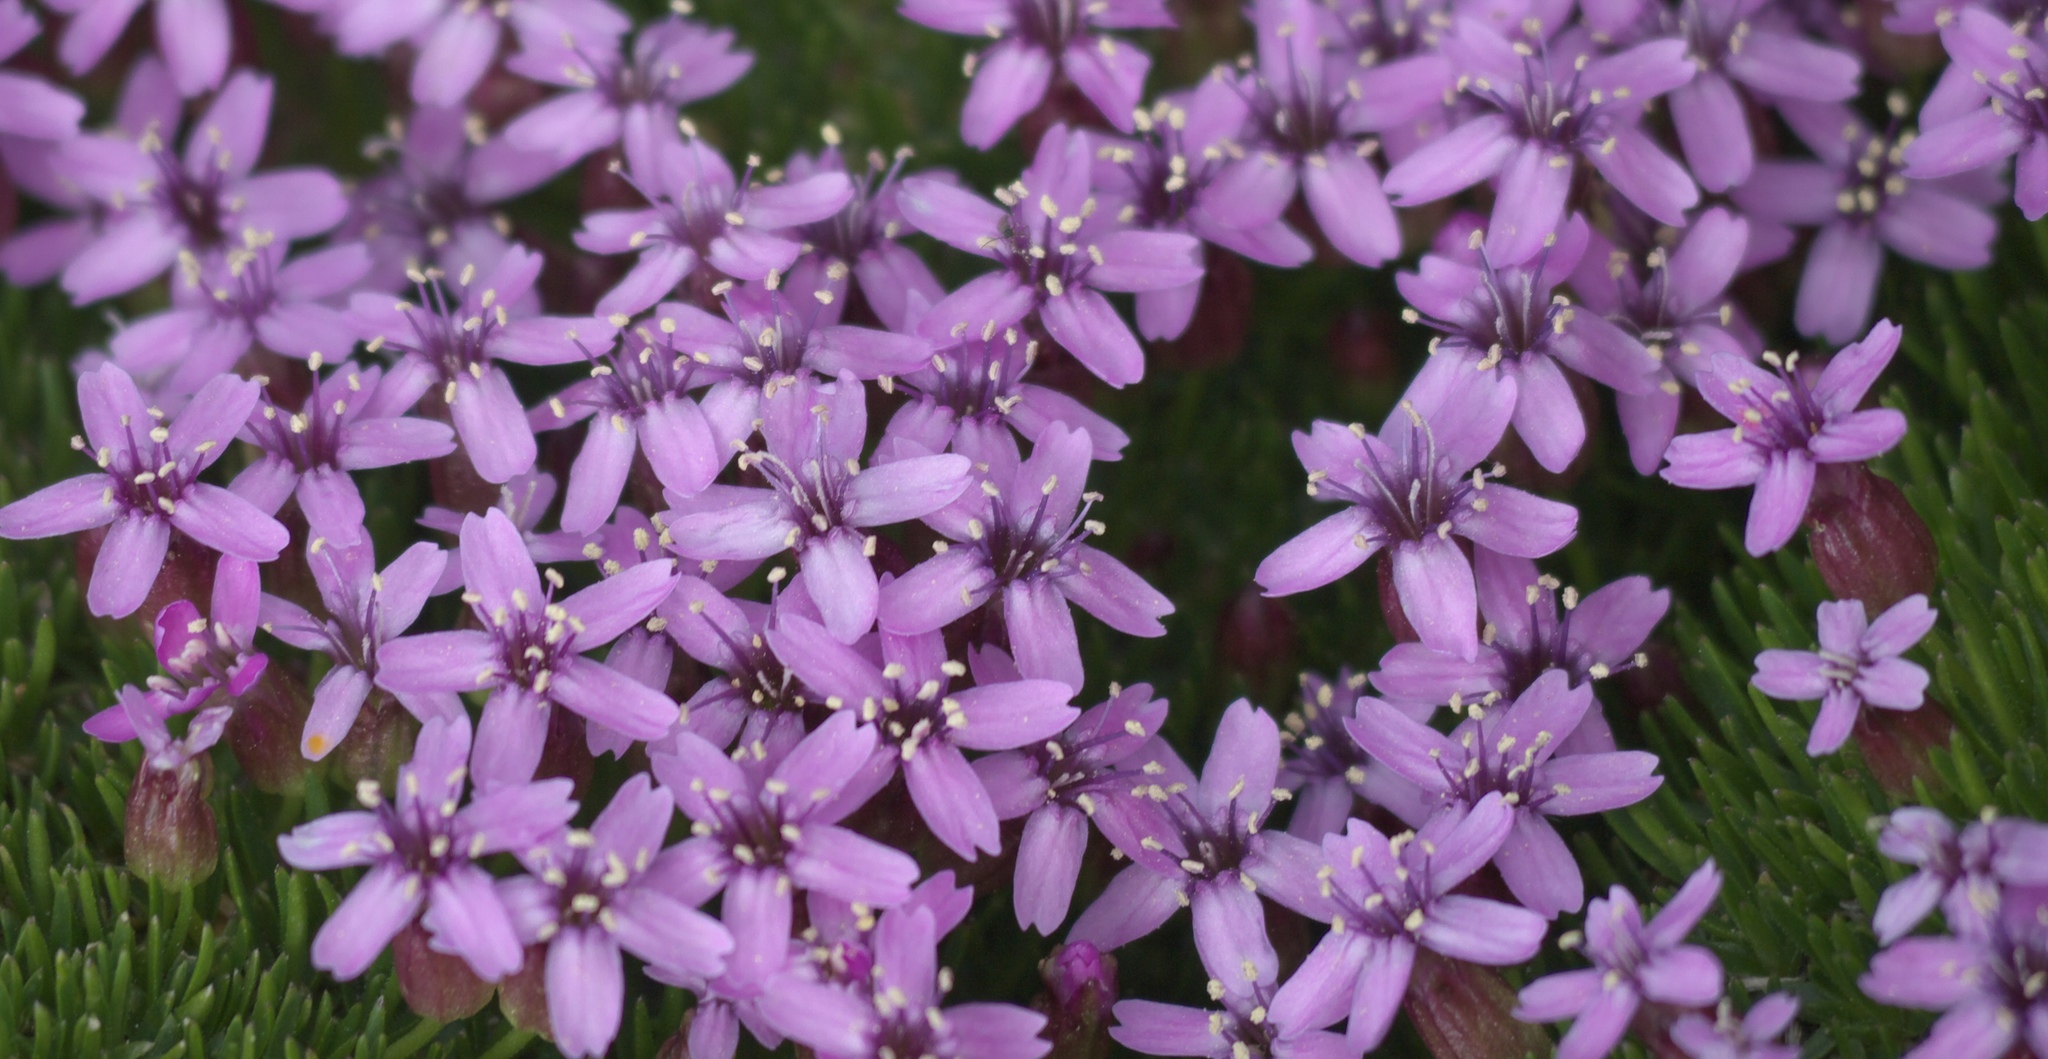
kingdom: Plantae
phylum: Tracheophyta
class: Magnoliopsida
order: Caryophyllales
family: Caryophyllaceae
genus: Silene
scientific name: Silene acaulis
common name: Moss campion
